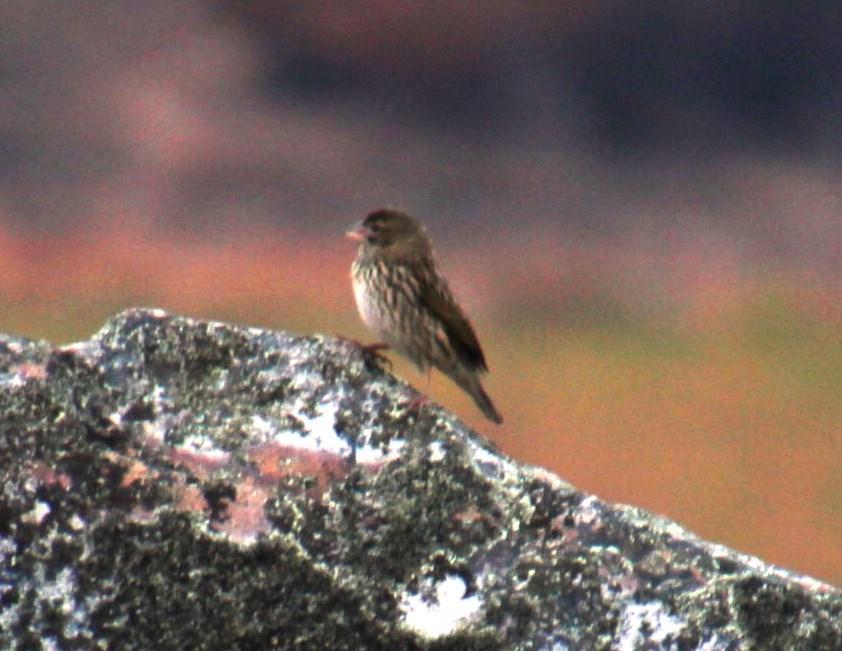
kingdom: Animalia
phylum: Chordata
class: Aves
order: Passeriformes
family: Ploceidae
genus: Euplectes
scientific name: Euplectes capensis
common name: Yellow bishop
